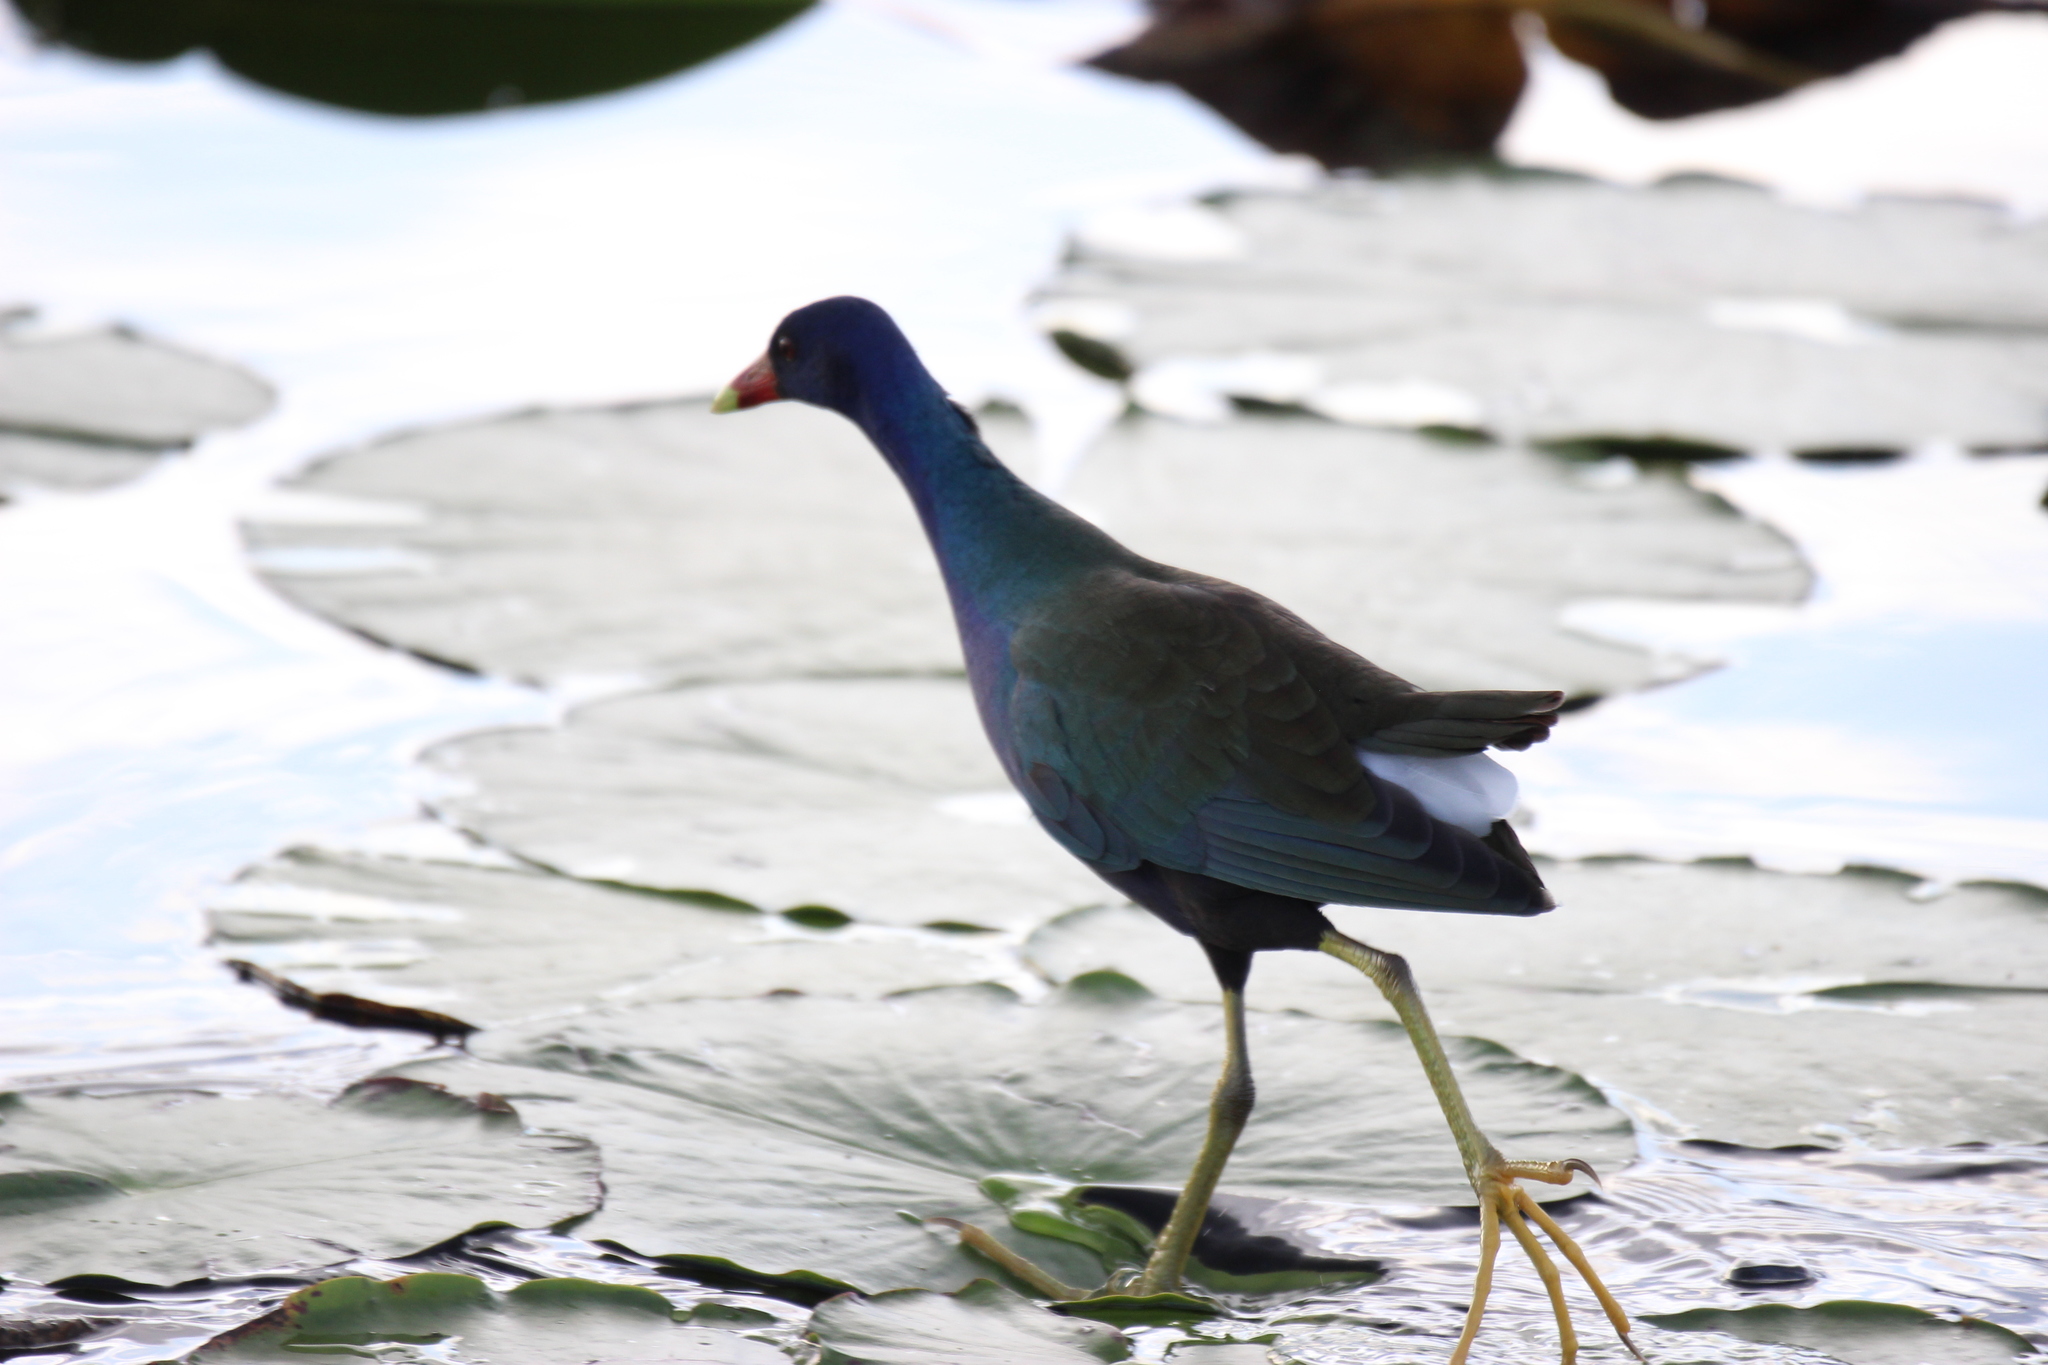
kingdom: Animalia
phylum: Chordata
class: Aves
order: Gruiformes
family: Rallidae
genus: Porphyrio
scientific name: Porphyrio martinica
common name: Purple gallinule
